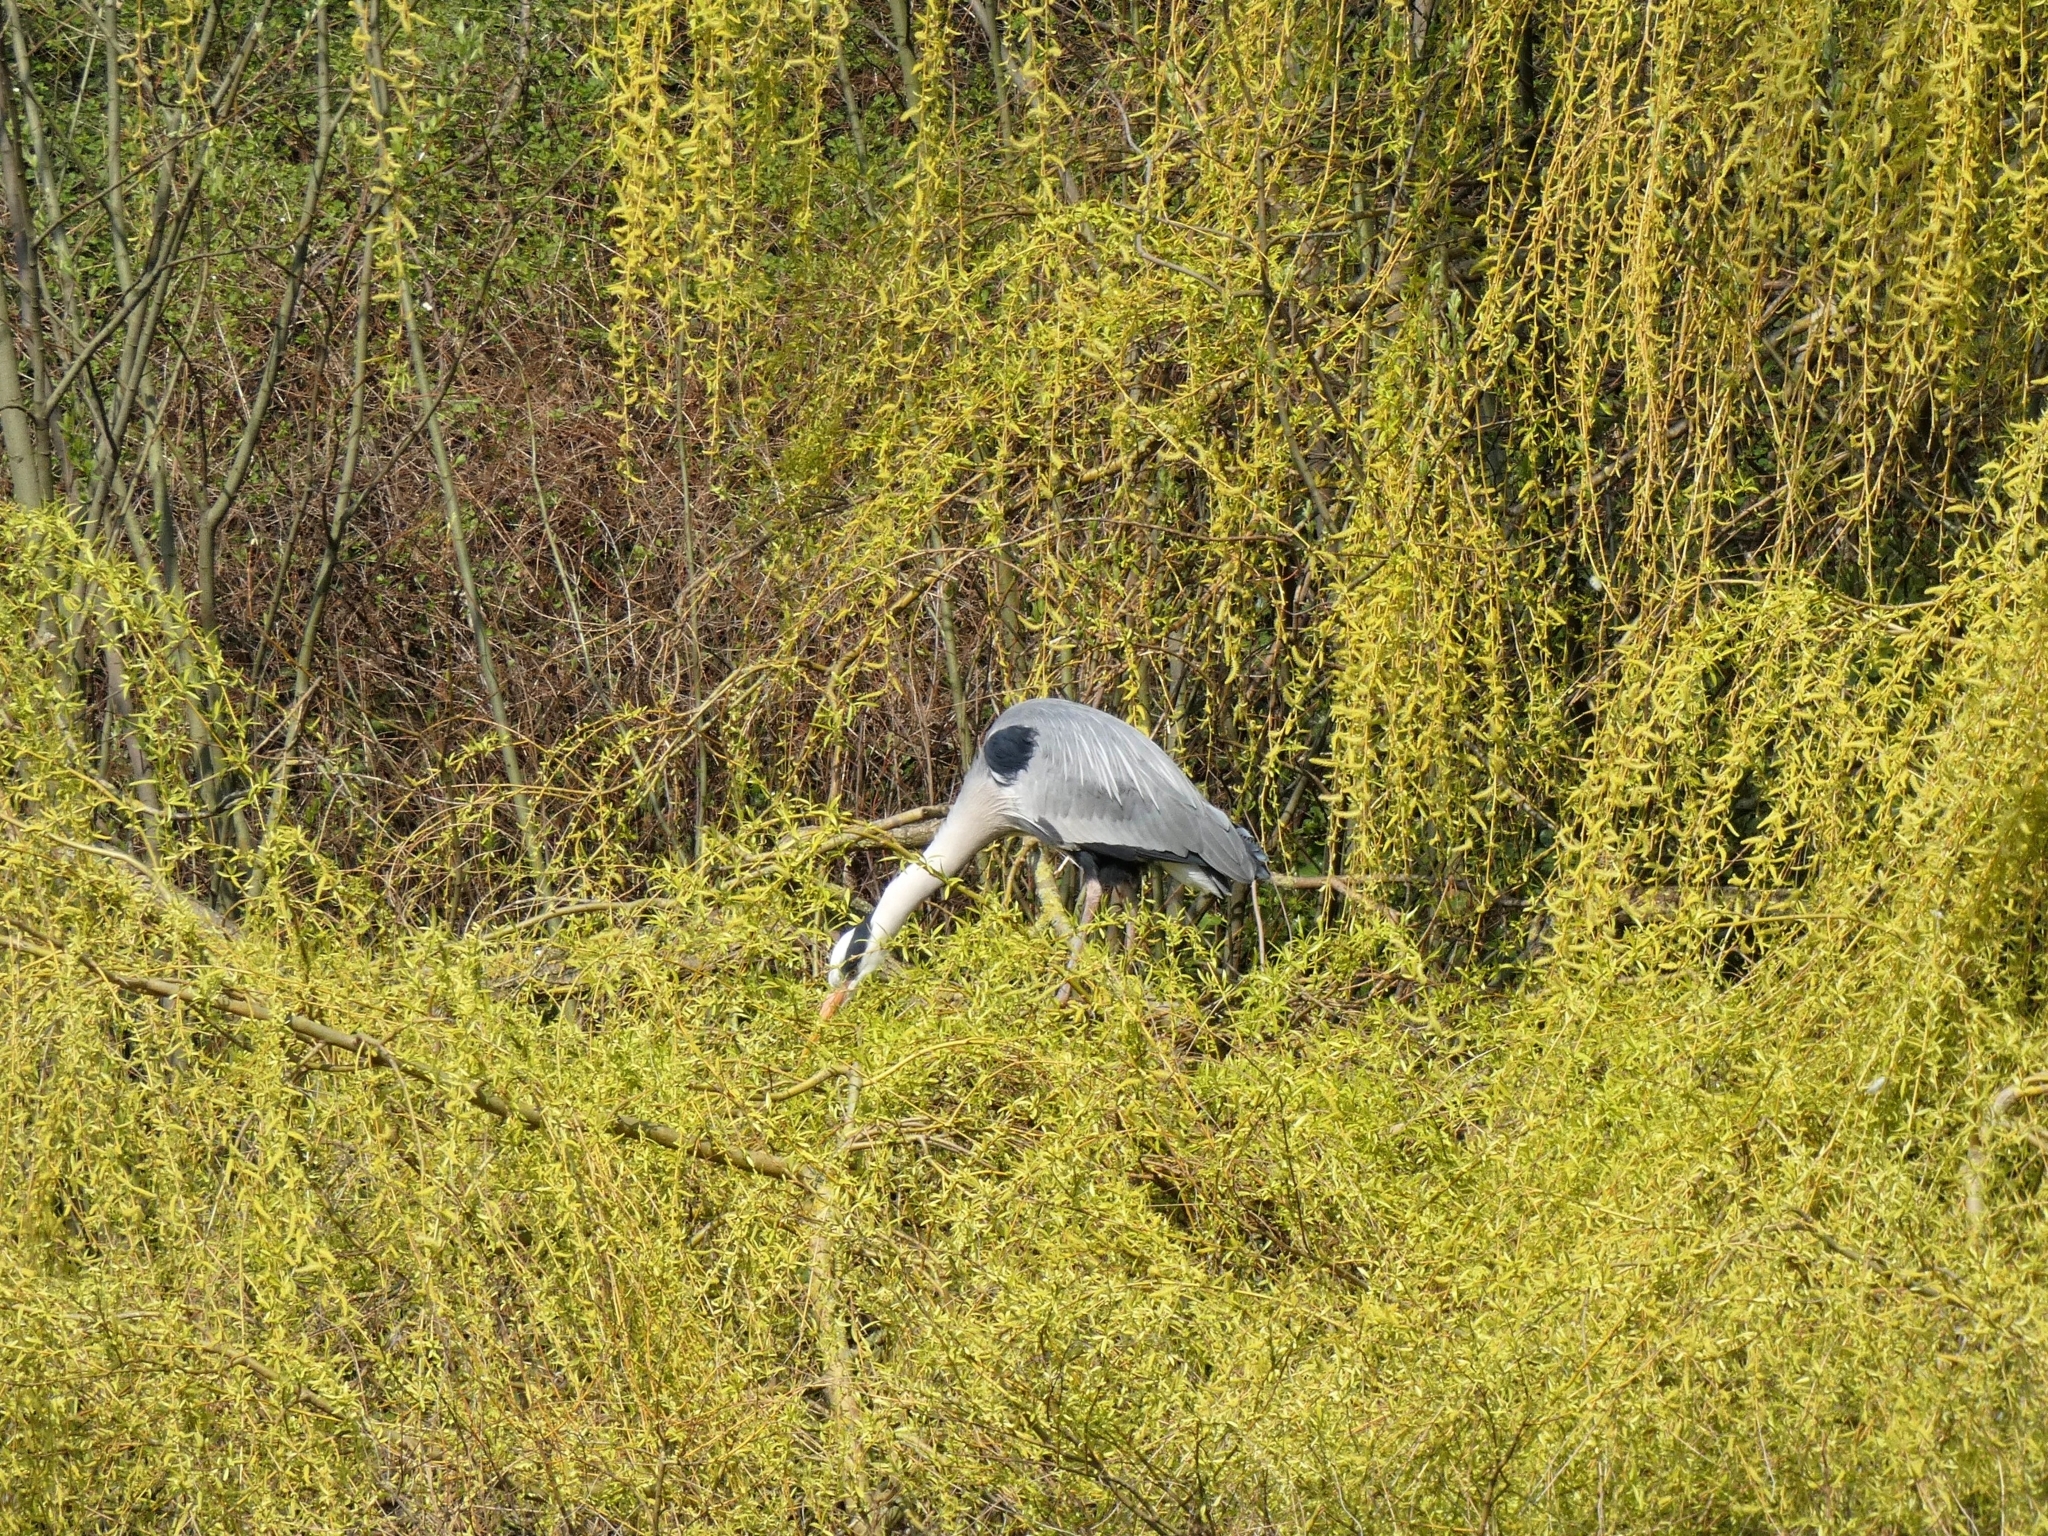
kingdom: Animalia
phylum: Chordata
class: Aves
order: Pelecaniformes
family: Ardeidae
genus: Ardea
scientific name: Ardea cinerea
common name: Grey heron
